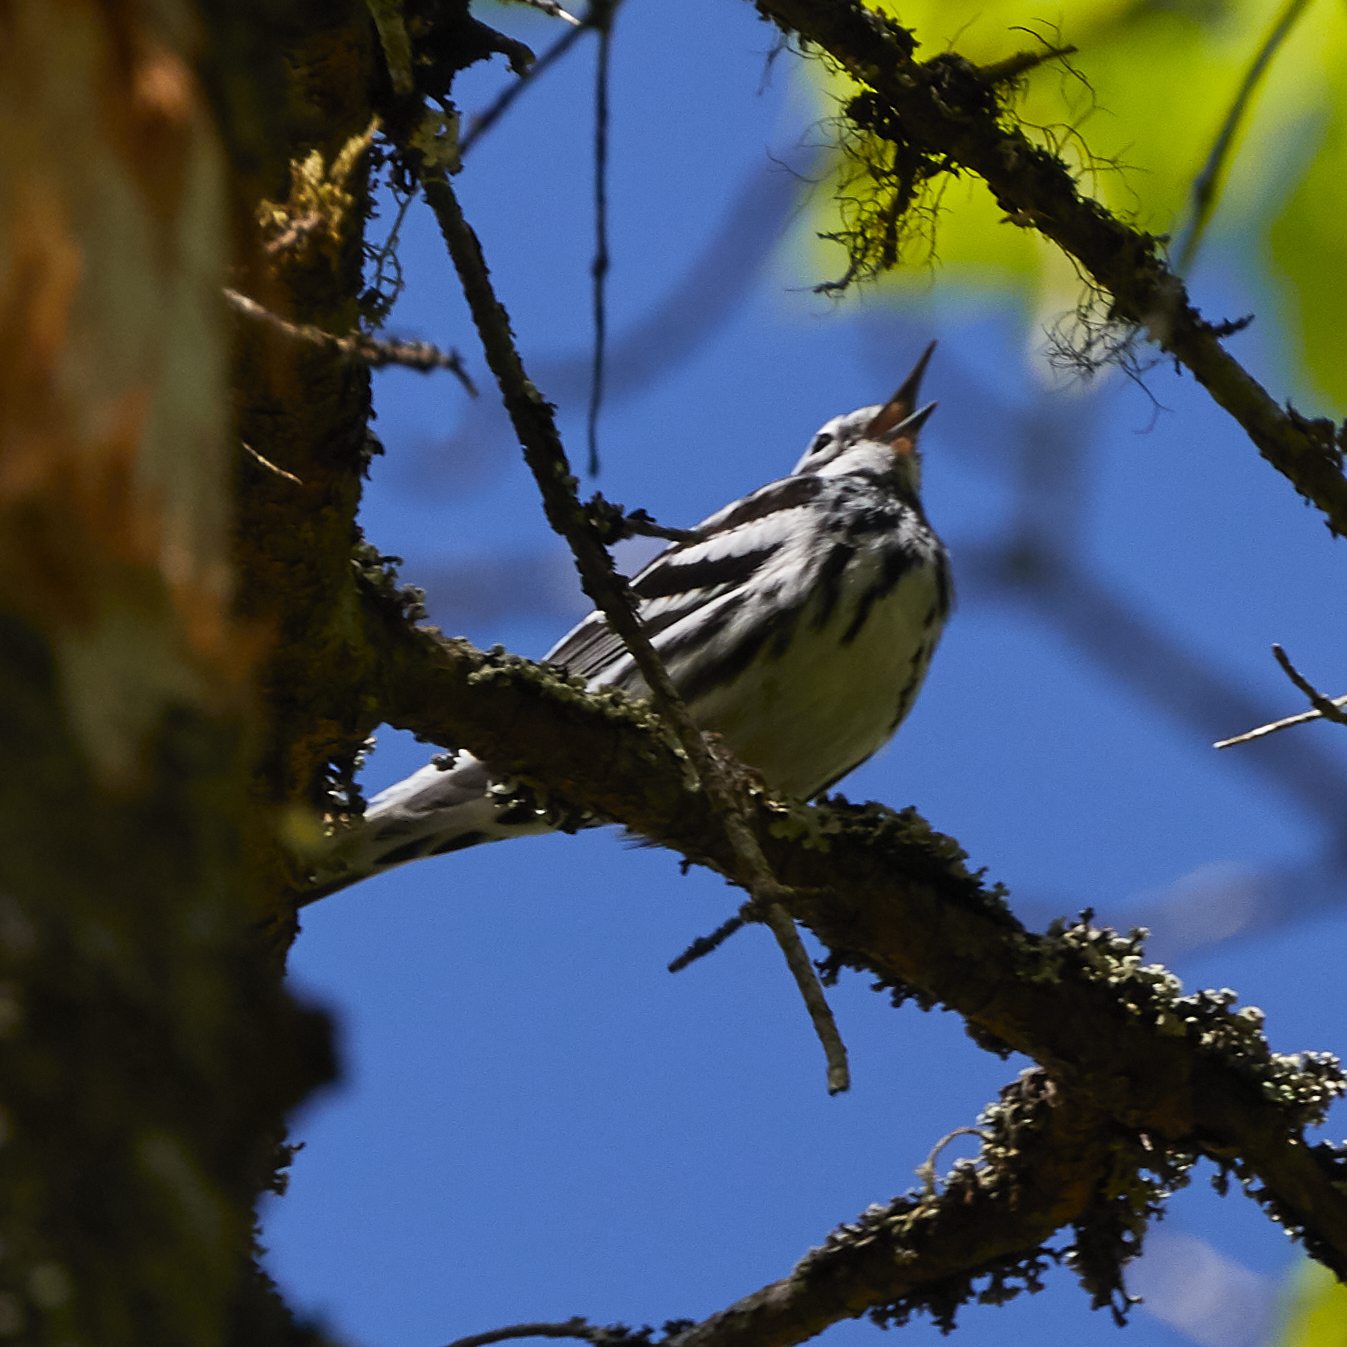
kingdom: Animalia
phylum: Chordata
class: Aves
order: Passeriformes
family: Parulidae
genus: Mniotilta
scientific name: Mniotilta varia
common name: Black-and-white warbler
